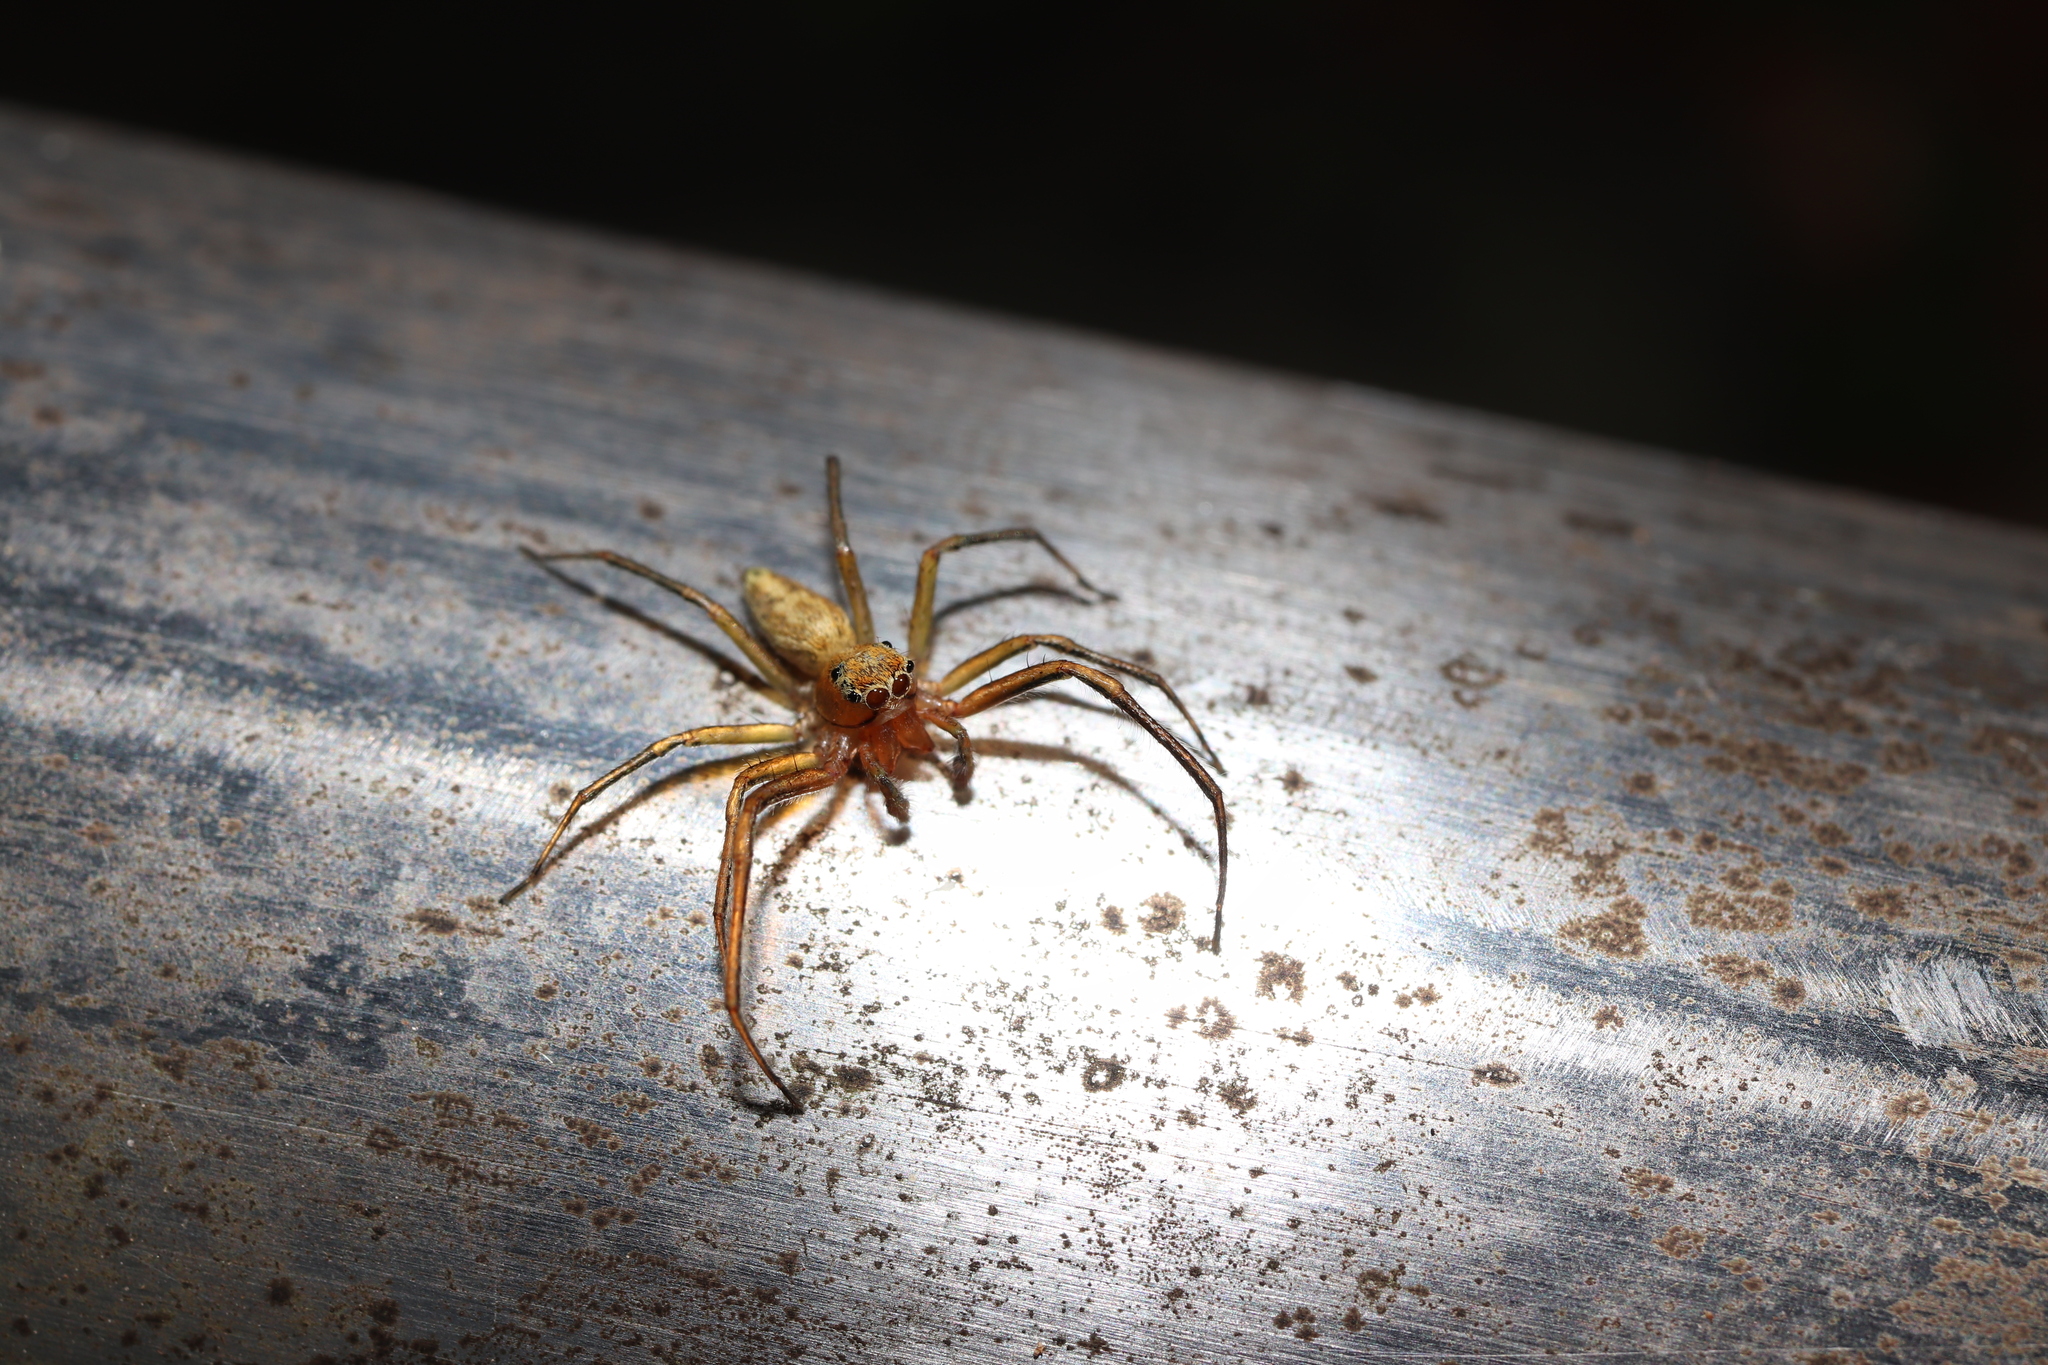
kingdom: Animalia
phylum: Arthropoda
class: Arachnida
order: Araneae
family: Salticidae
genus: Phintella
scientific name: Phintella abnormis
